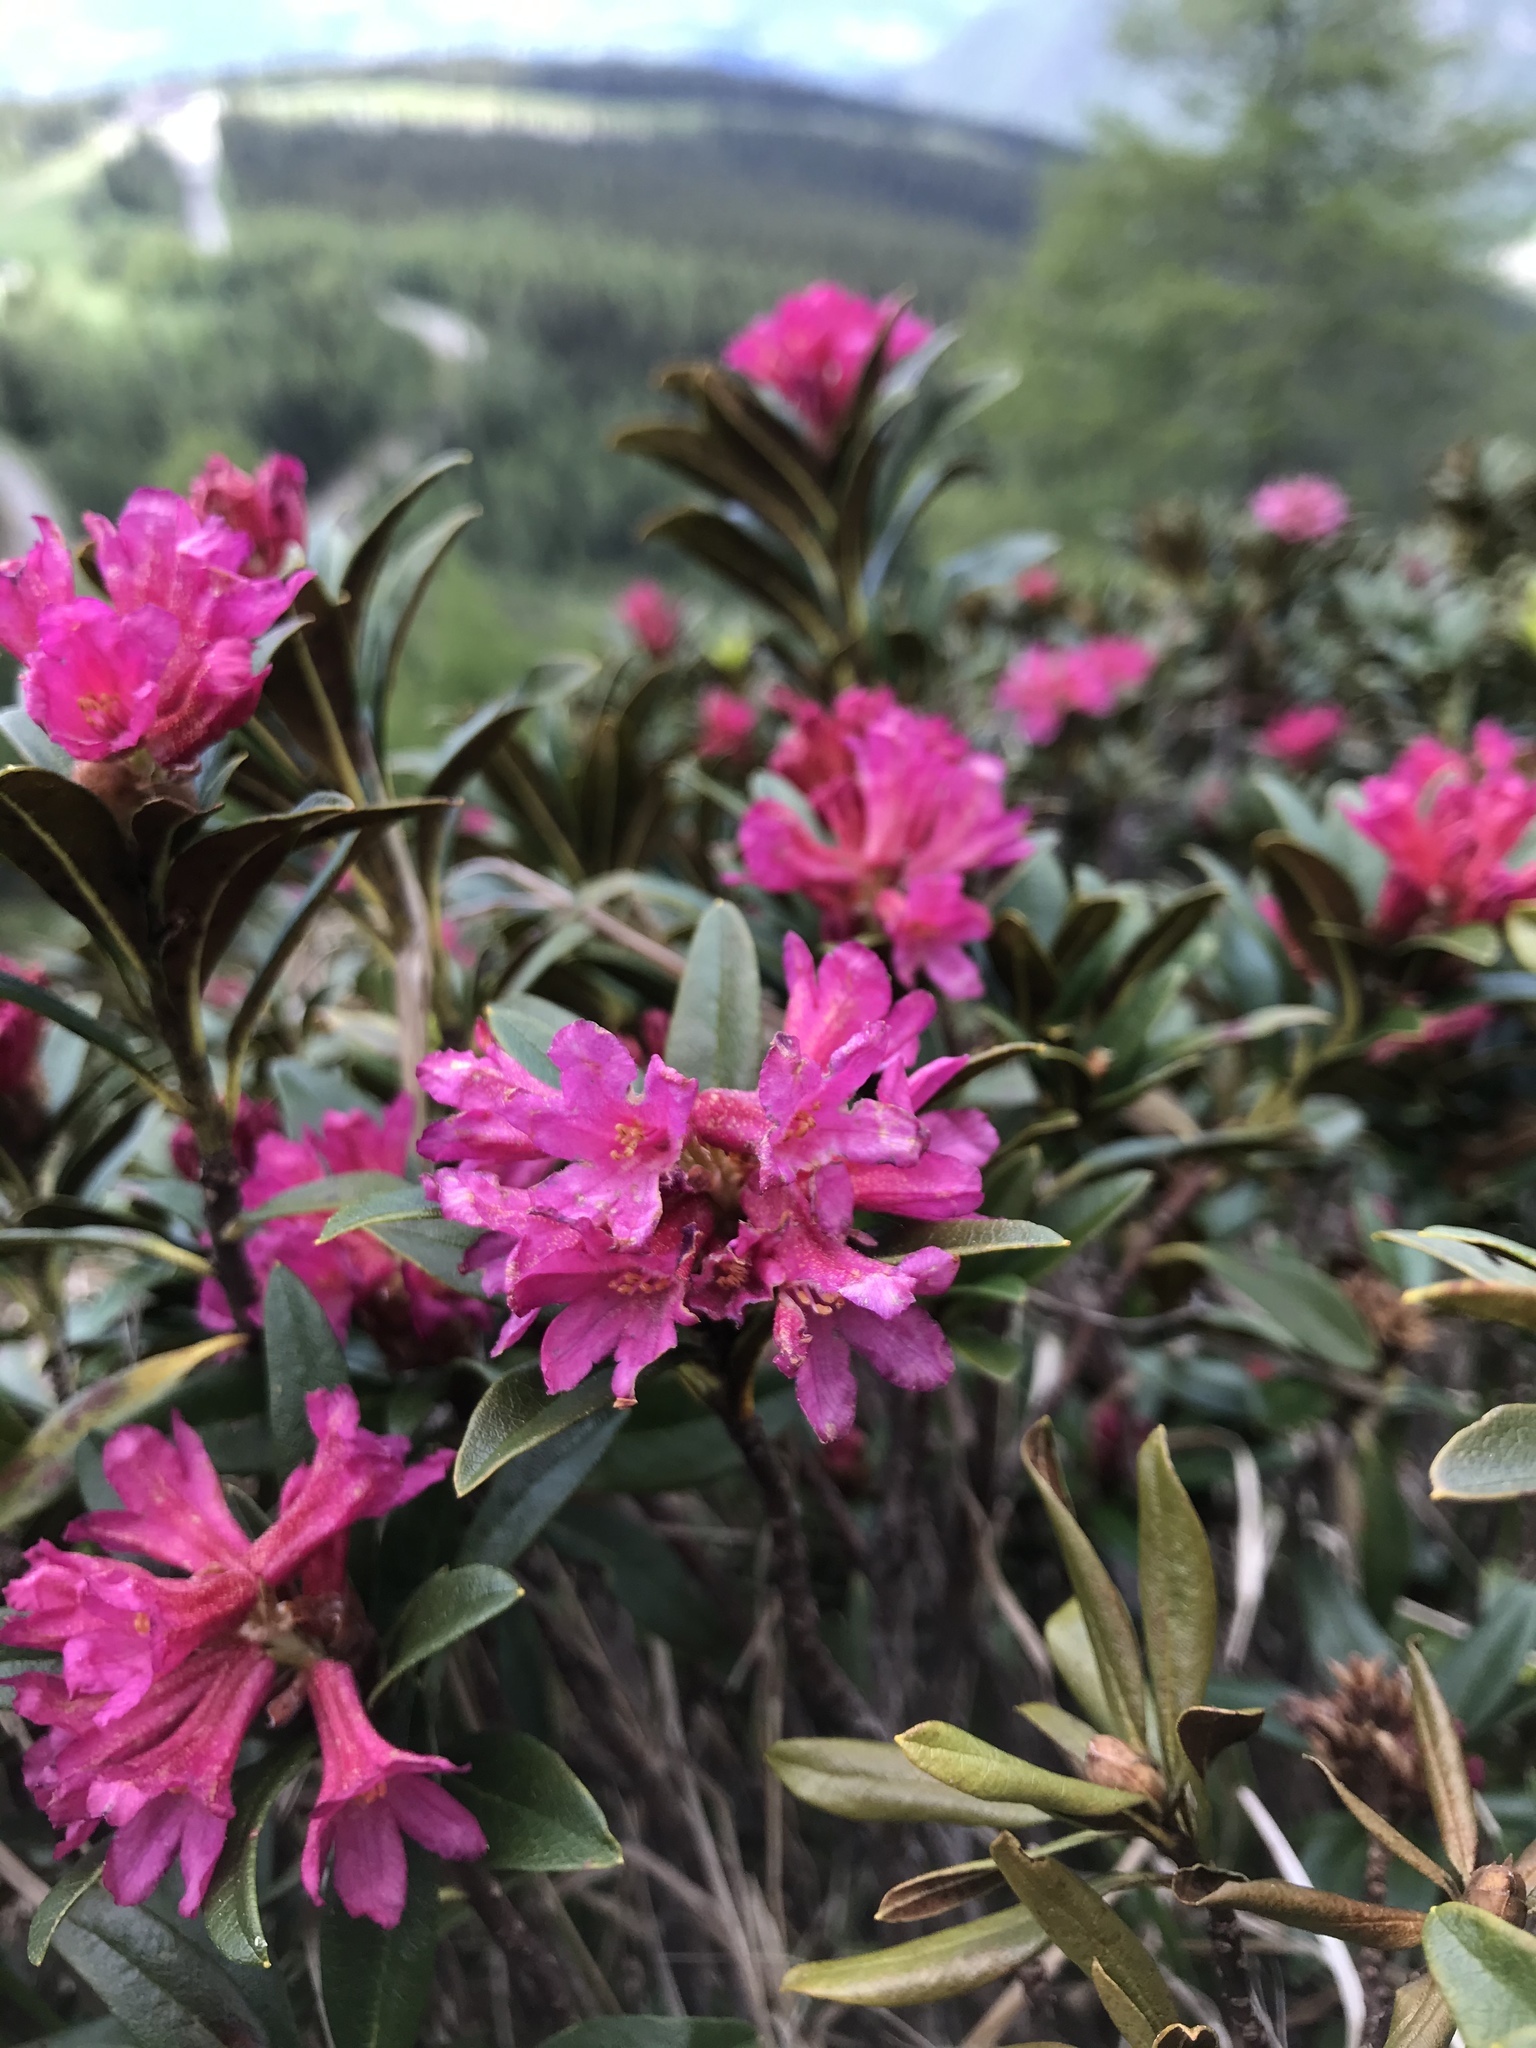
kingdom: Plantae
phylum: Tracheophyta
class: Magnoliopsida
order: Ericales
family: Ericaceae
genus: Rhododendron
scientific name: Rhododendron ferrugineum
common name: Alpenrose
